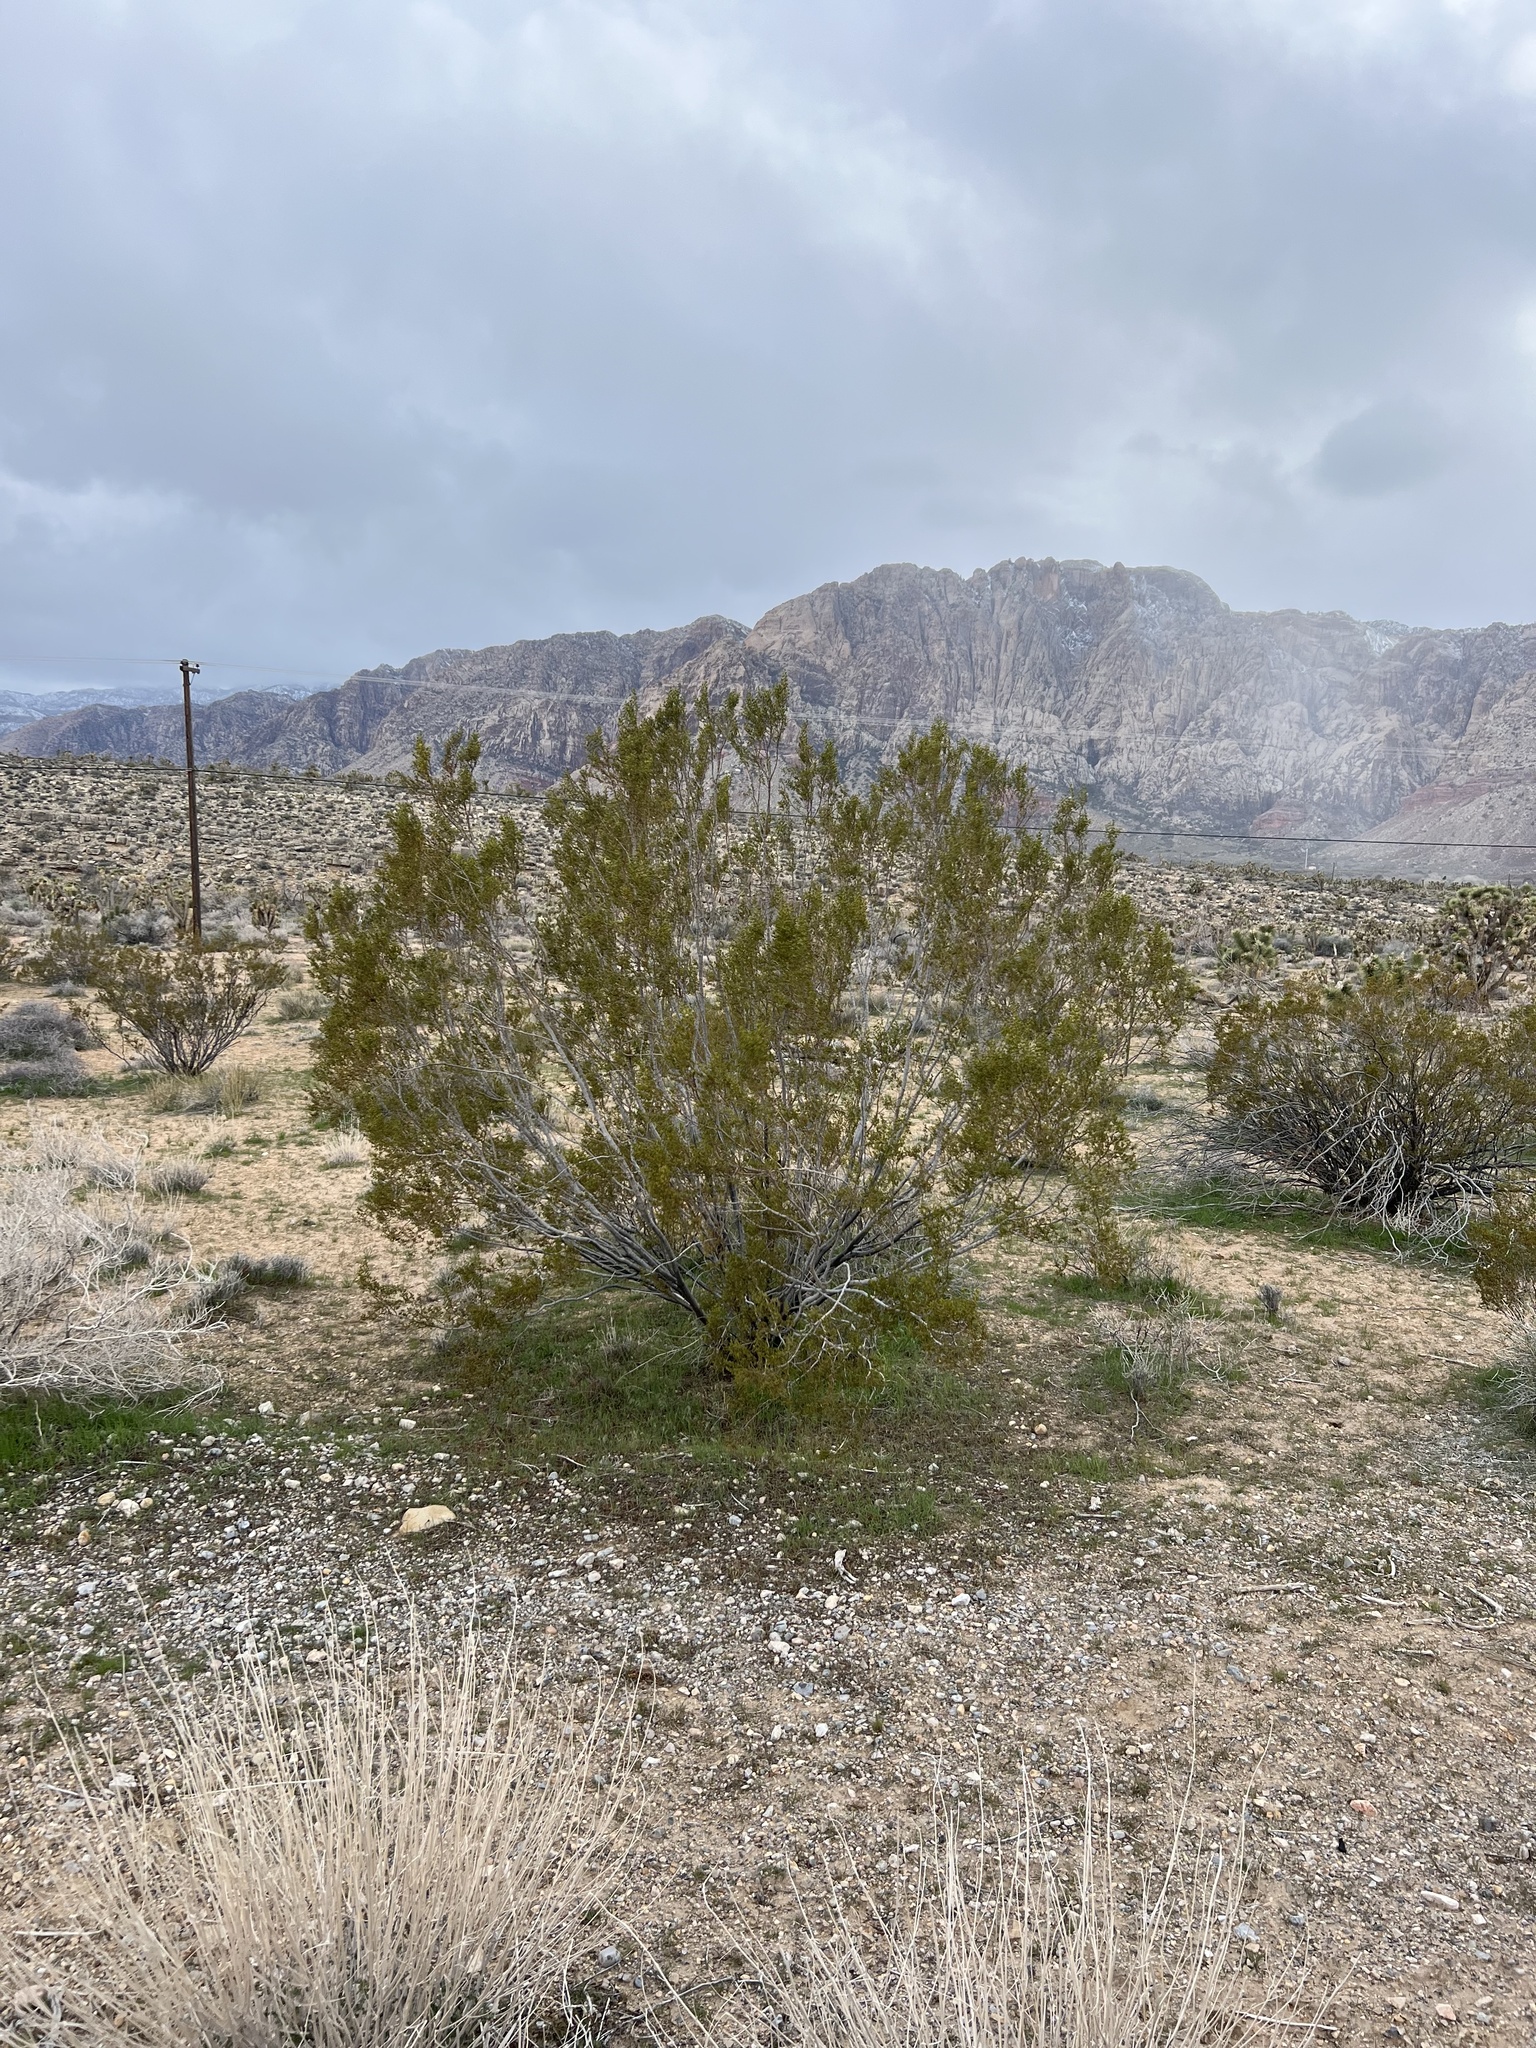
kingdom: Plantae
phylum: Tracheophyta
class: Magnoliopsida
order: Zygophyllales
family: Zygophyllaceae
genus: Larrea
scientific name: Larrea tridentata
